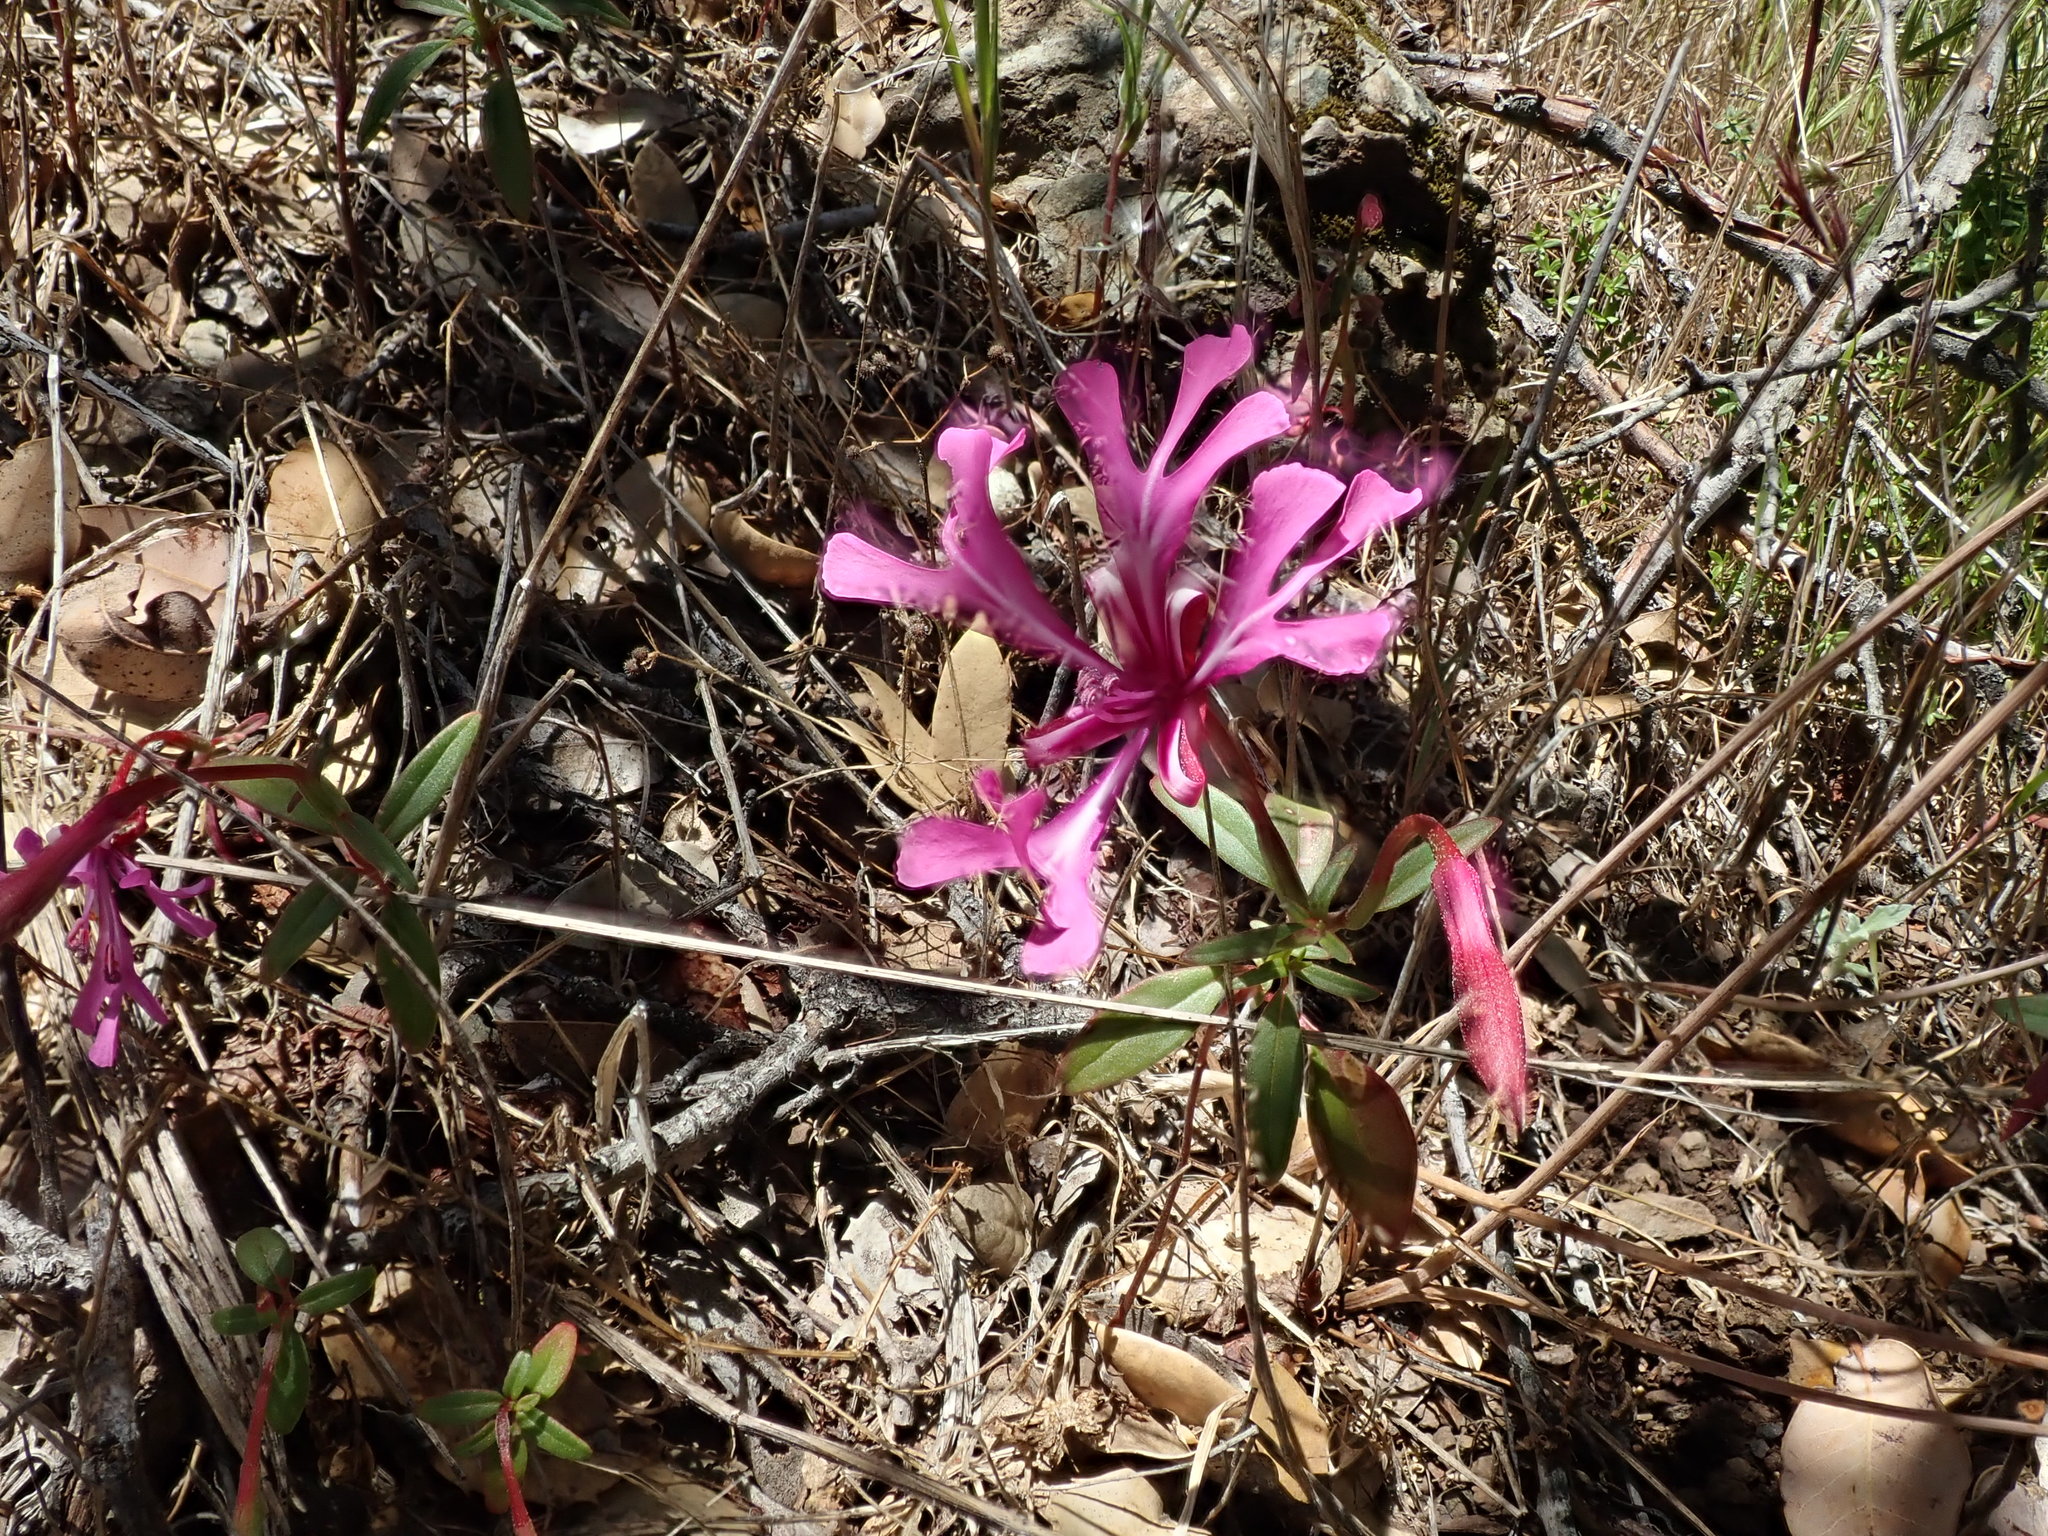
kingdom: Plantae
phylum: Tracheophyta
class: Magnoliopsida
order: Myrtales
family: Onagraceae
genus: Clarkia
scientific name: Clarkia concinna
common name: Red-ribbons
